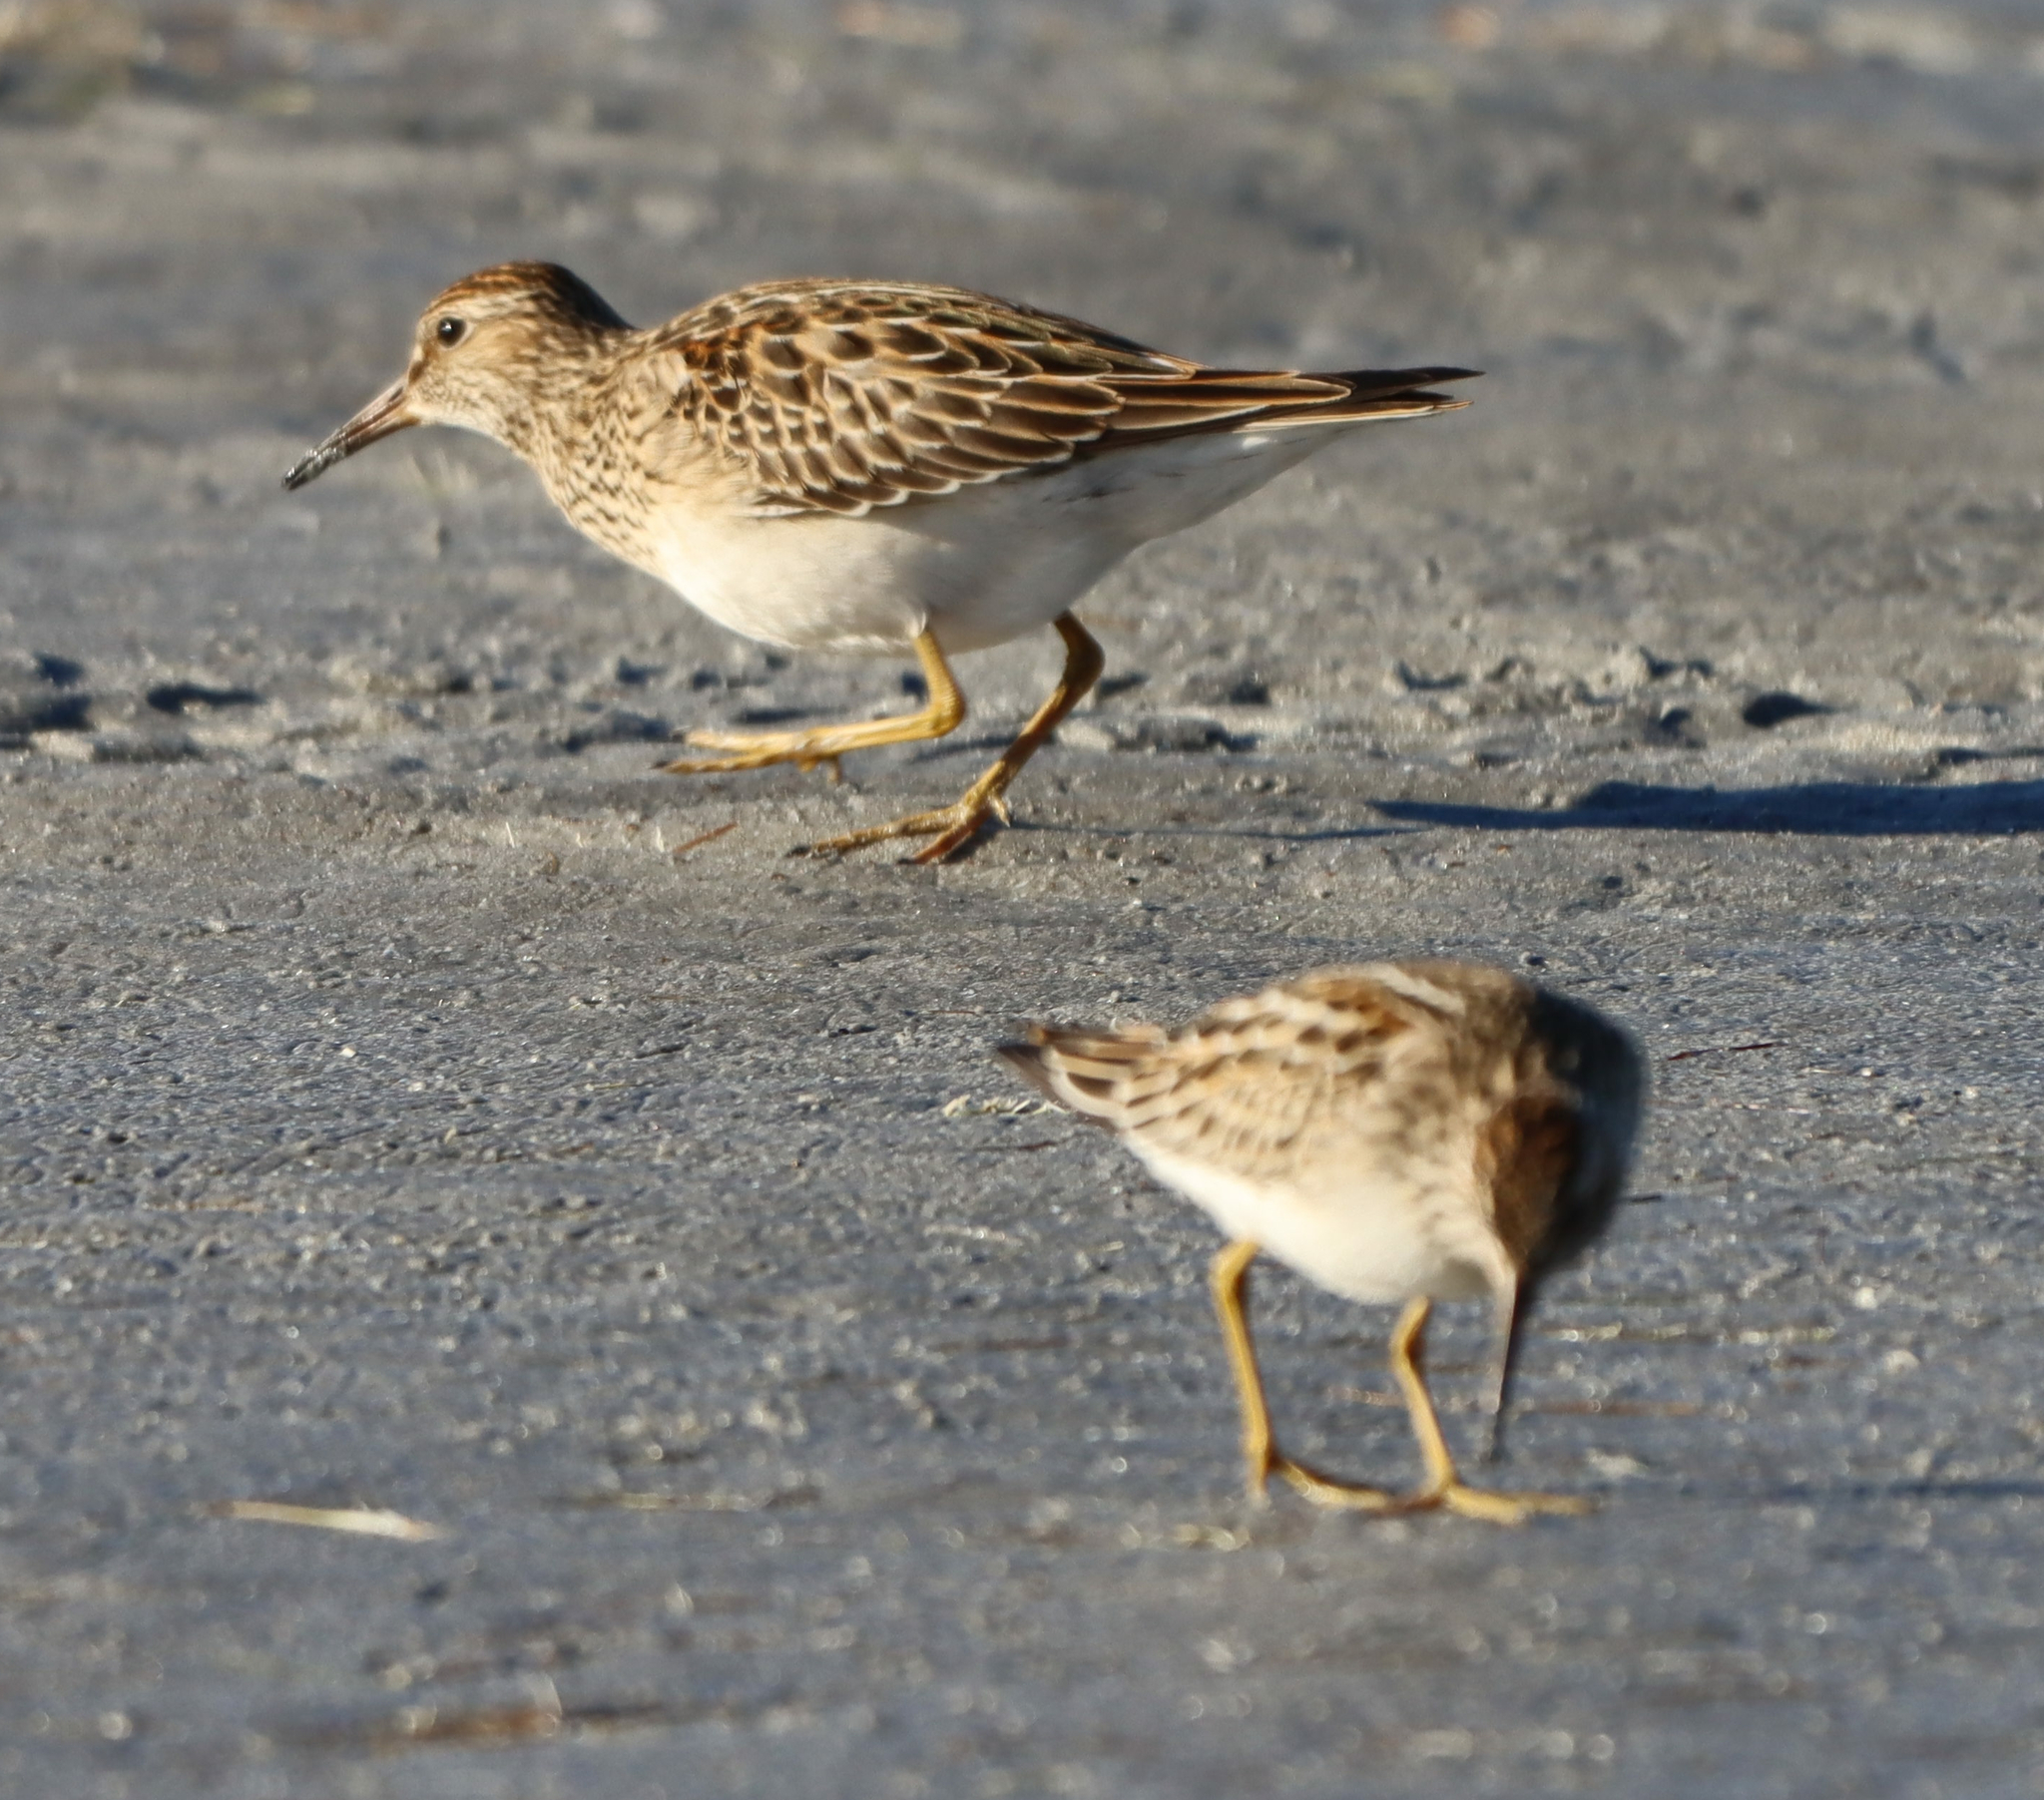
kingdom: Animalia
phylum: Chordata
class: Aves
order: Charadriiformes
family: Scolopacidae
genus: Calidris
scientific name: Calidris melanotos
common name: Pectoral sandpiper
